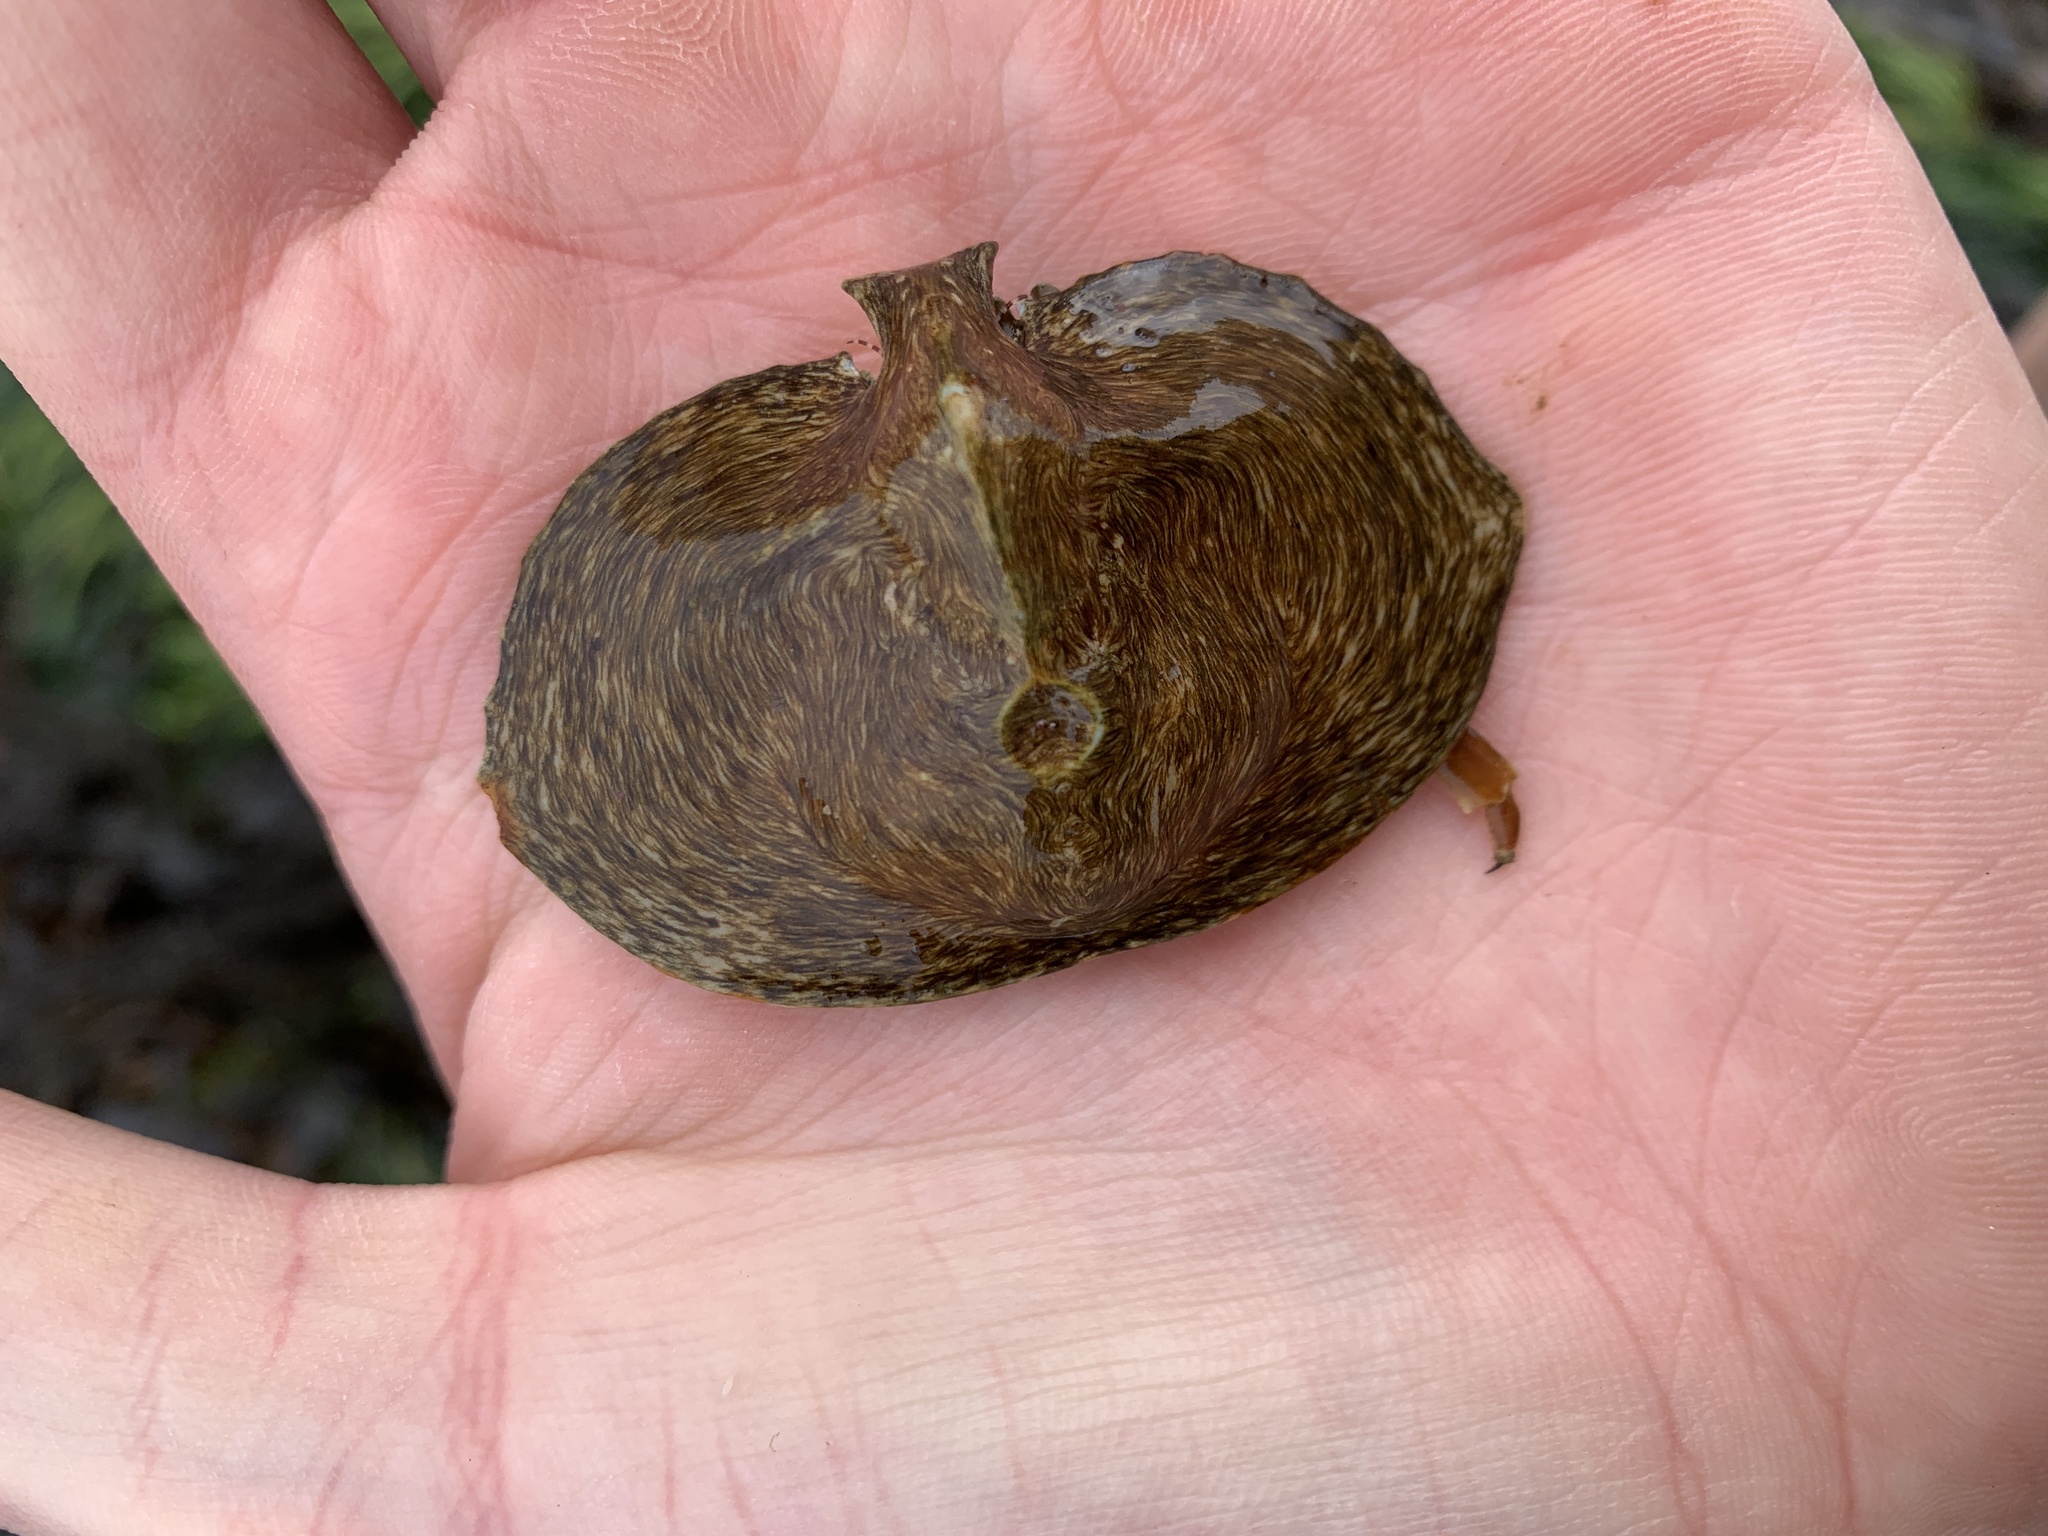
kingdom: Animalia
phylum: Arthropoda
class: Malacostraca
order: Decapoda
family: Lithodidae
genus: Cryptolithodes
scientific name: Cryptolithodes sitchensis
